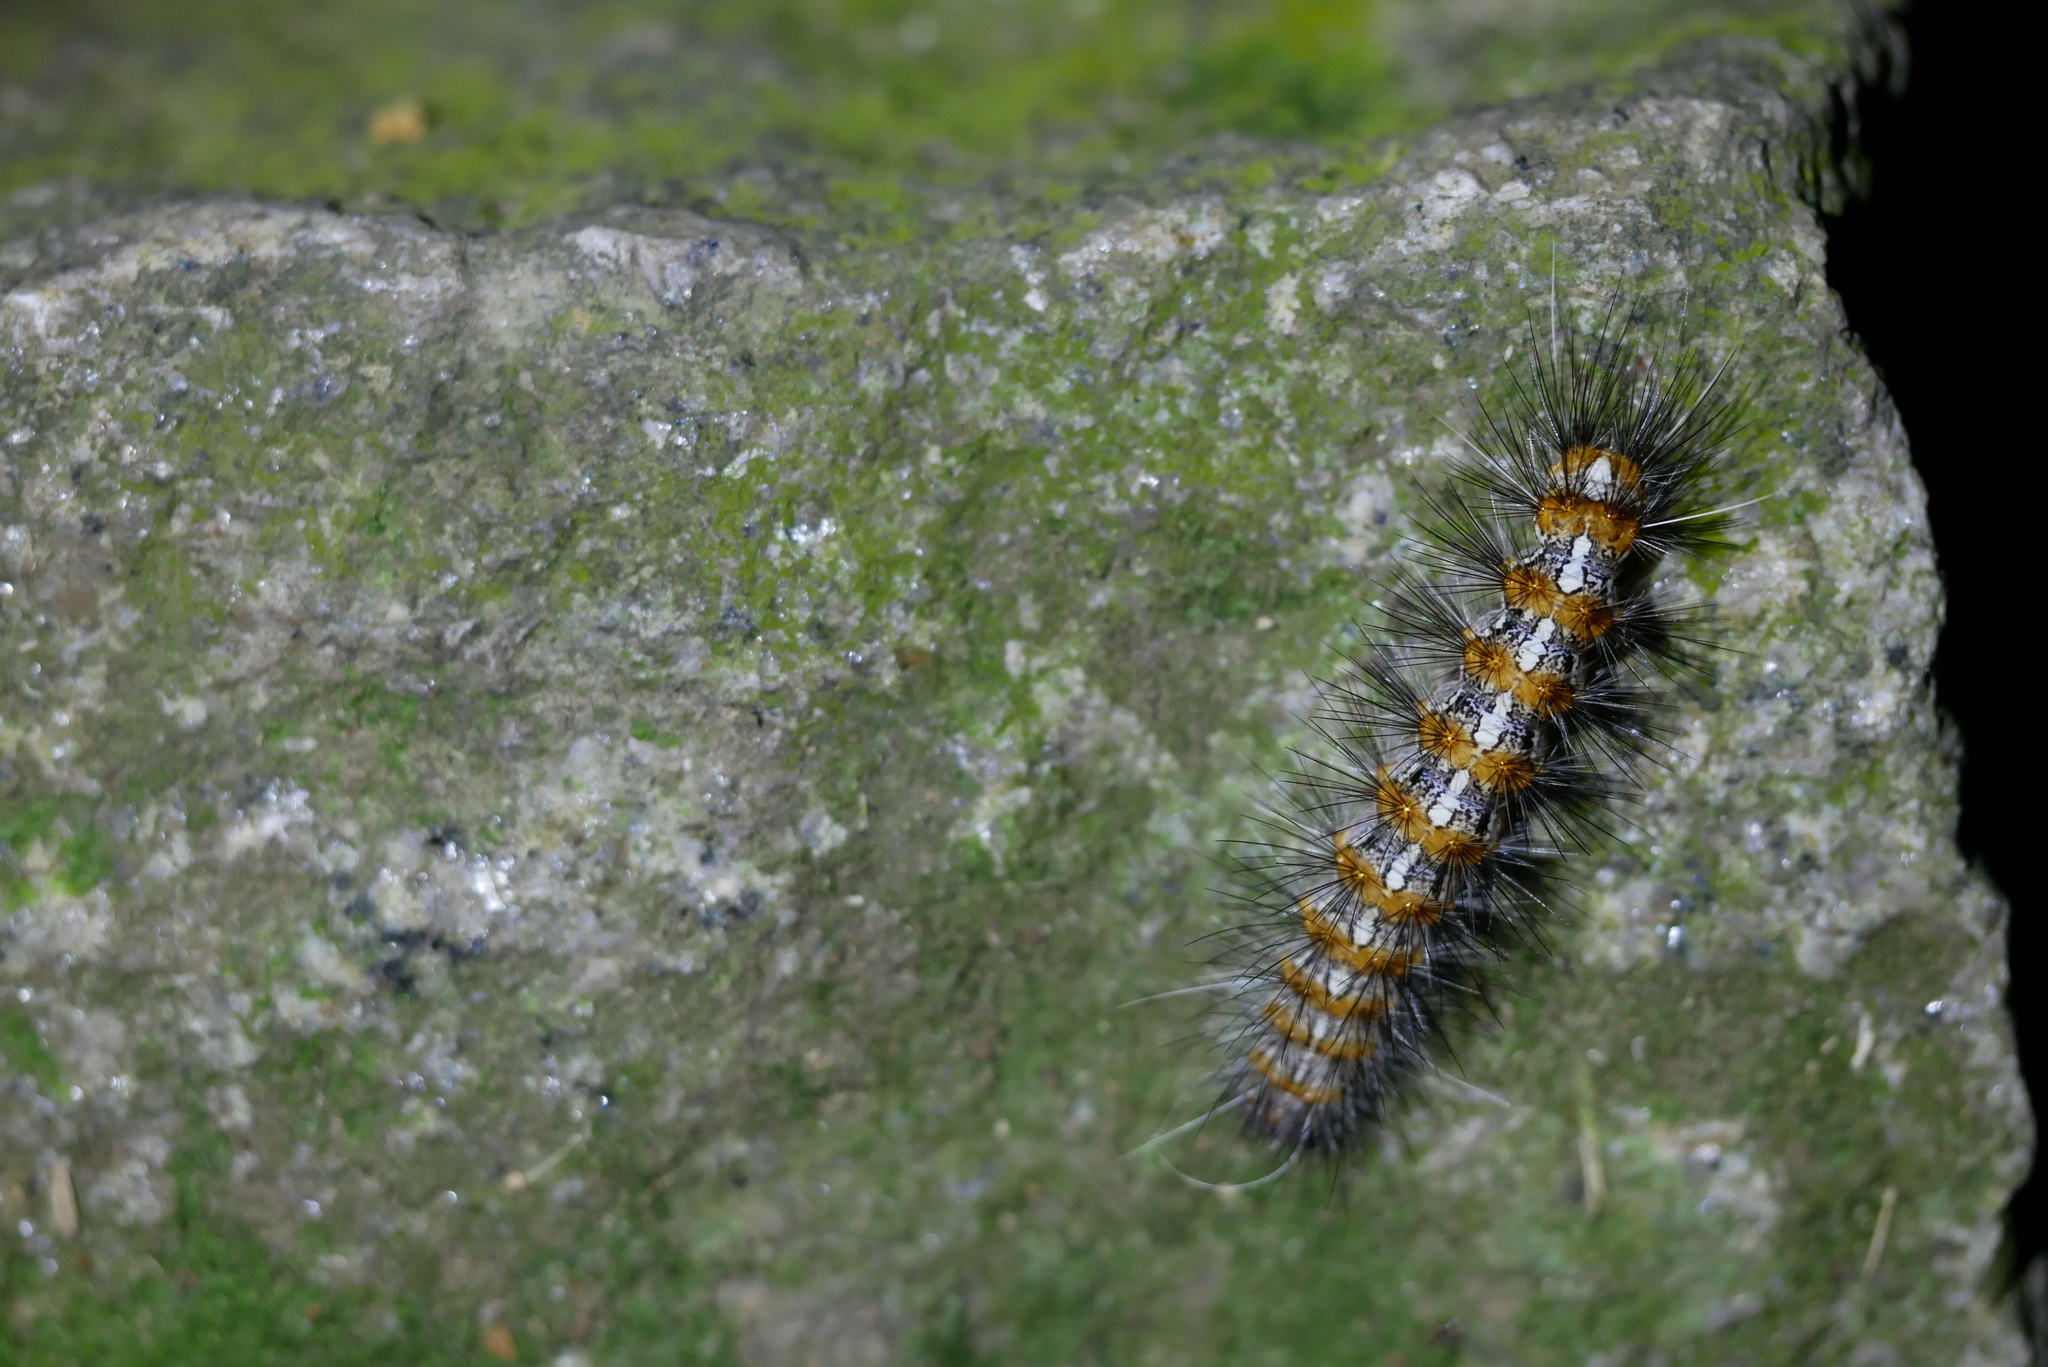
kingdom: Animalia
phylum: Arthropoda
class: Insecta
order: Lepidoptera
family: Erebidae
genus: Lemyra
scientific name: Lemyra imparilis
